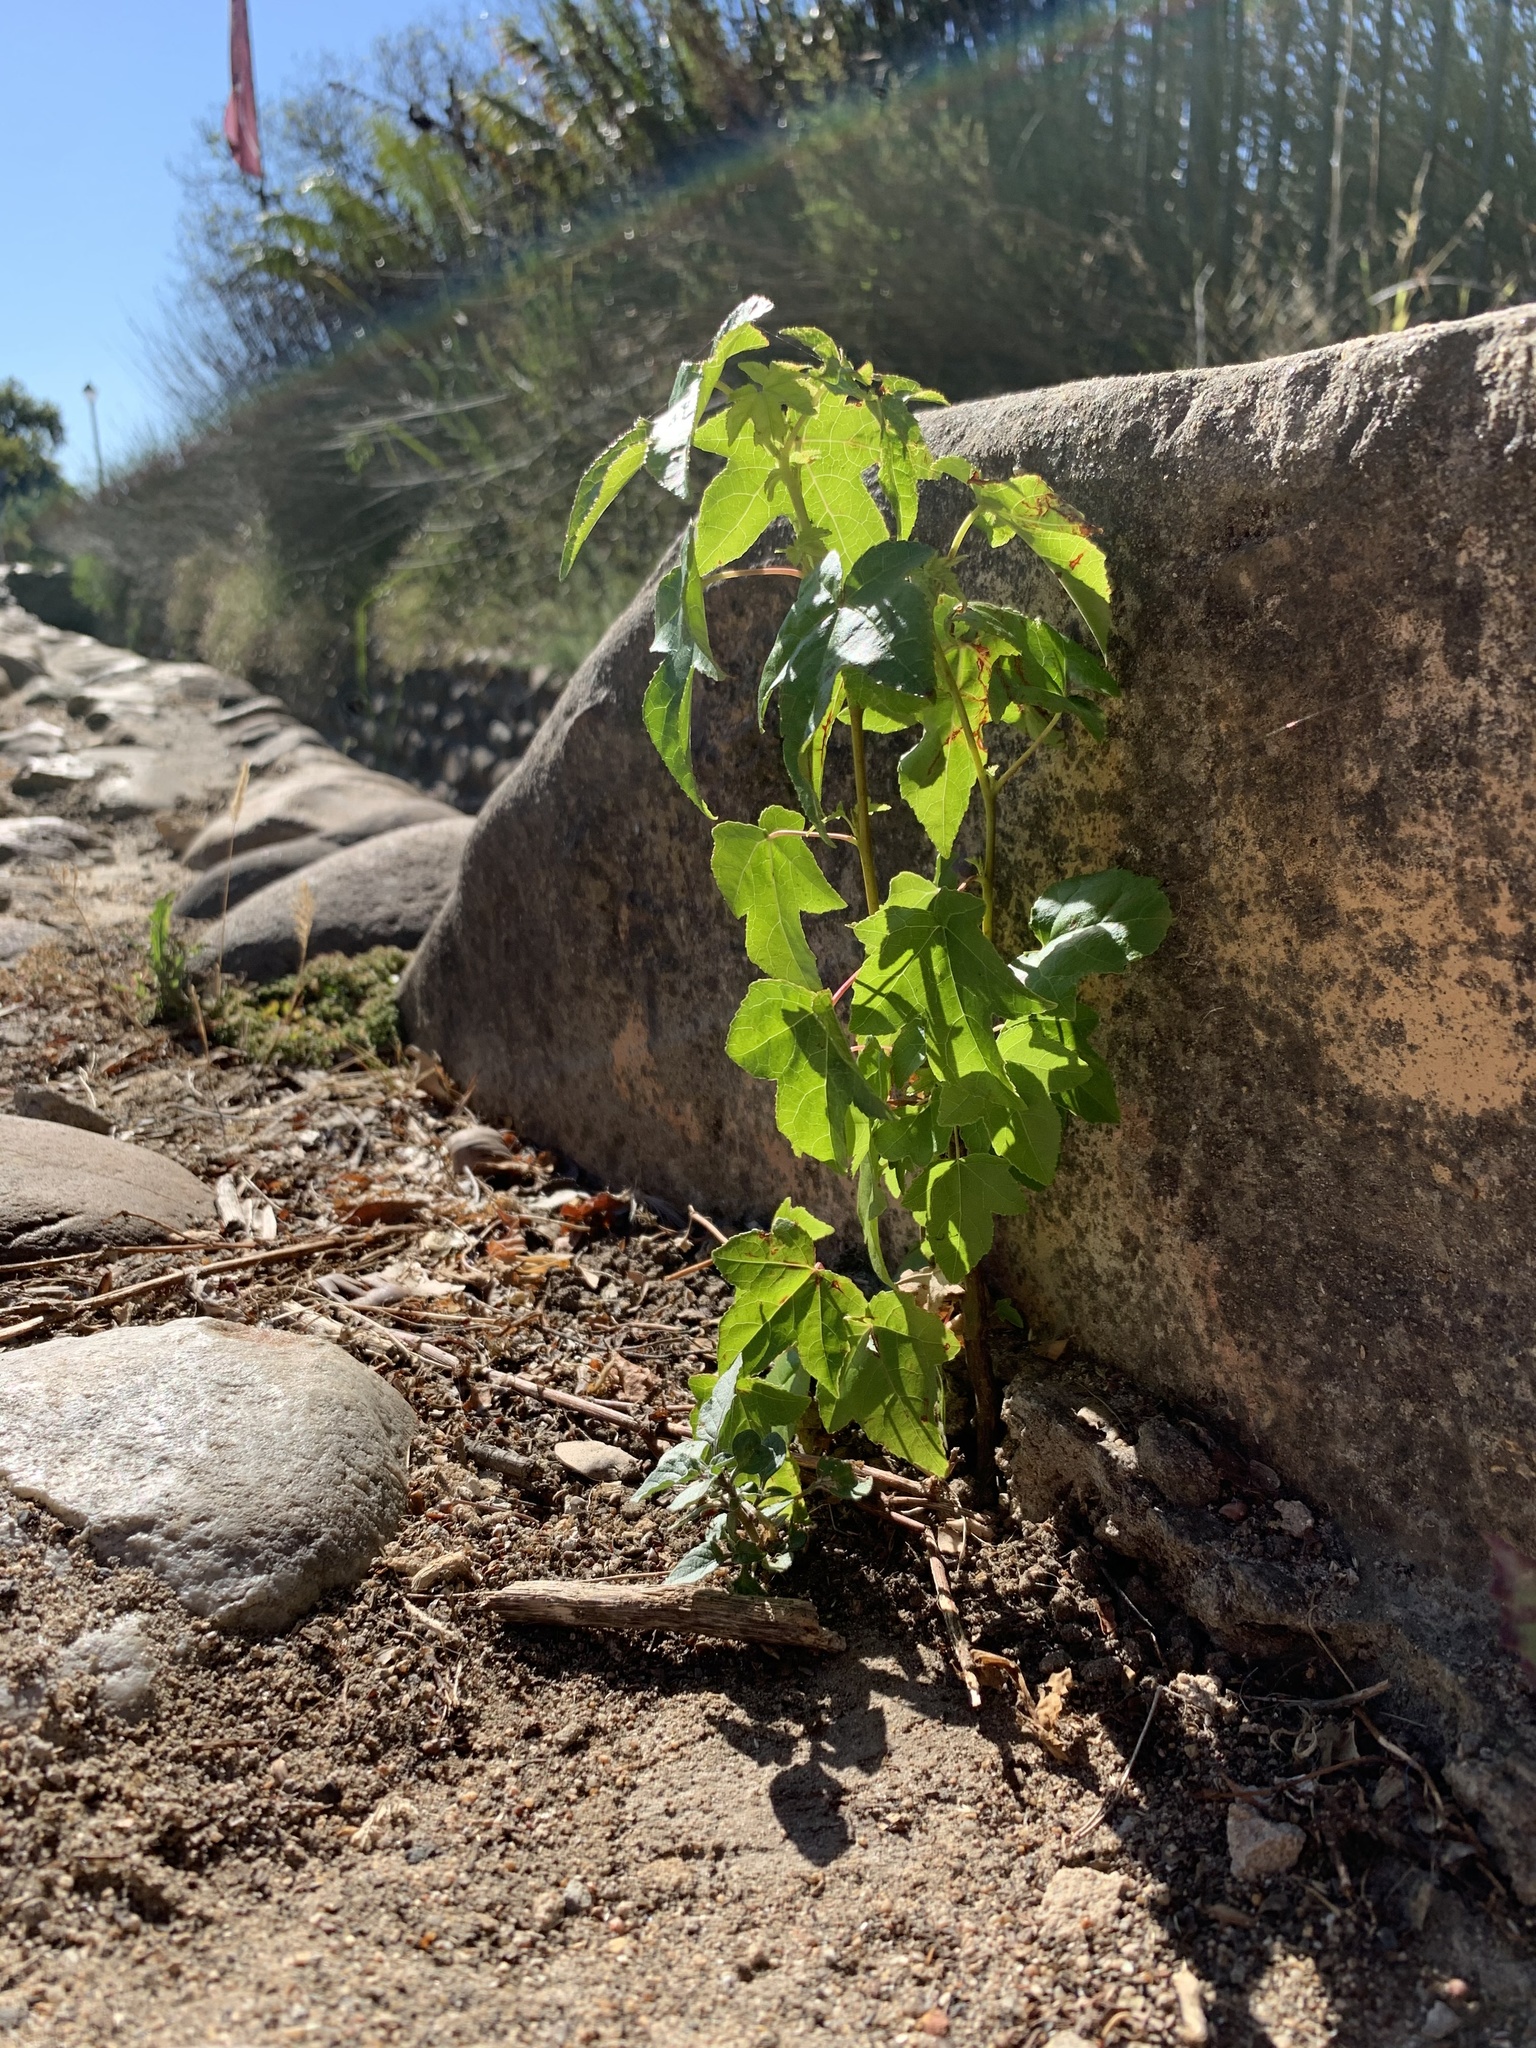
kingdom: Plantae
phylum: Tracheophyta
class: Magnoliopsida
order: Saxifragales
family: Altingiaceae
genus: Liquidambar
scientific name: Liquidambar styraciflua
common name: Sweet gum
